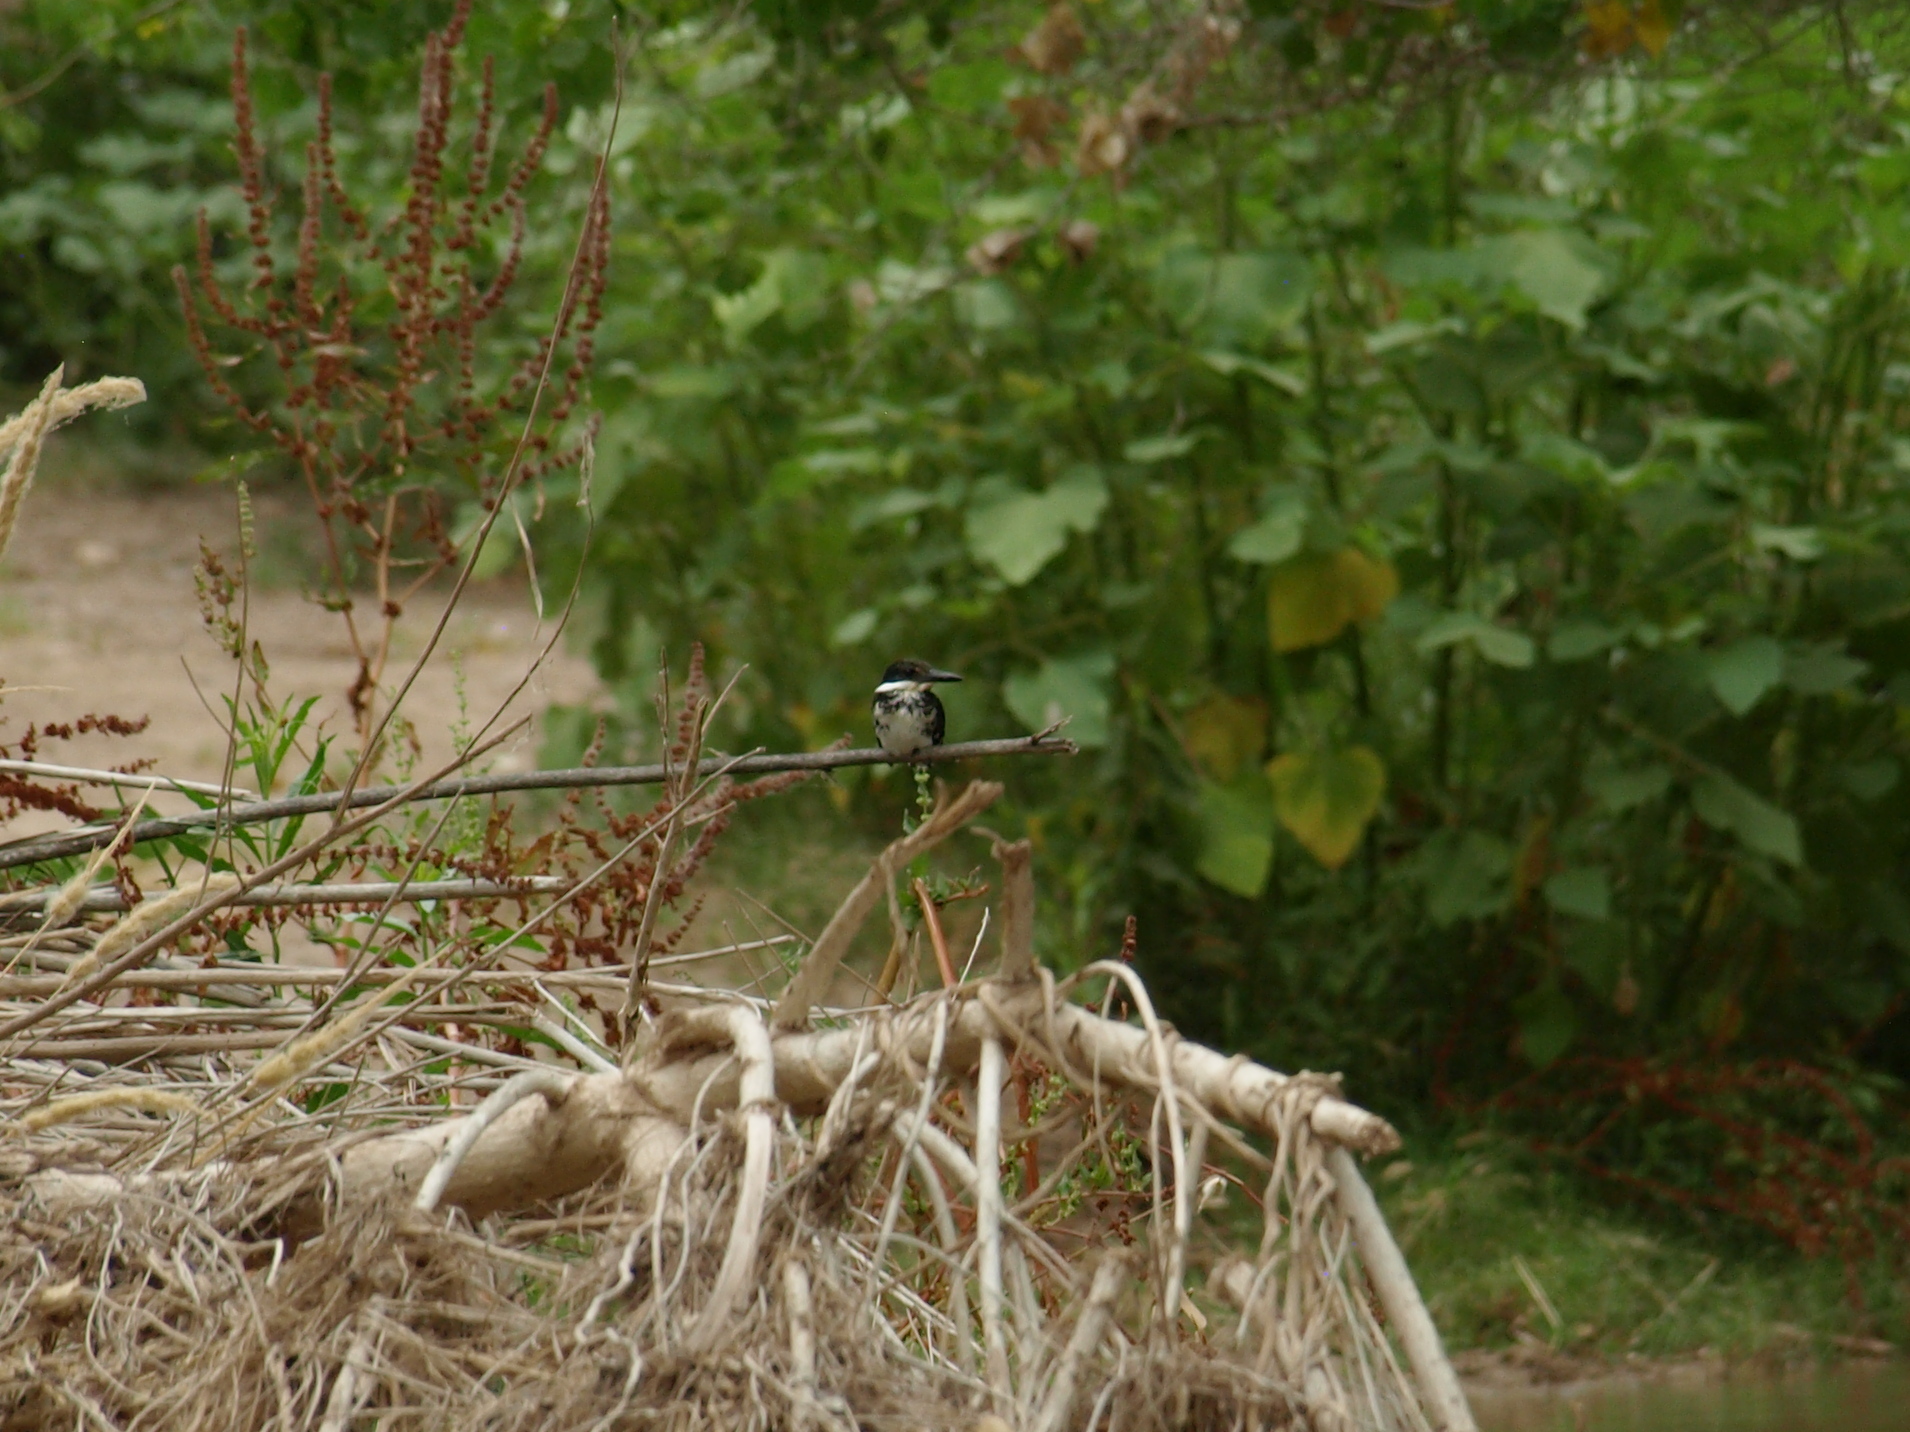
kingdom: Animalia
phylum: Chordata
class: Aves
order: Coraciiformes
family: Alcedinidae
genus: Chloroceryle
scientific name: Chloroceryle americana
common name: Green kingfisher
